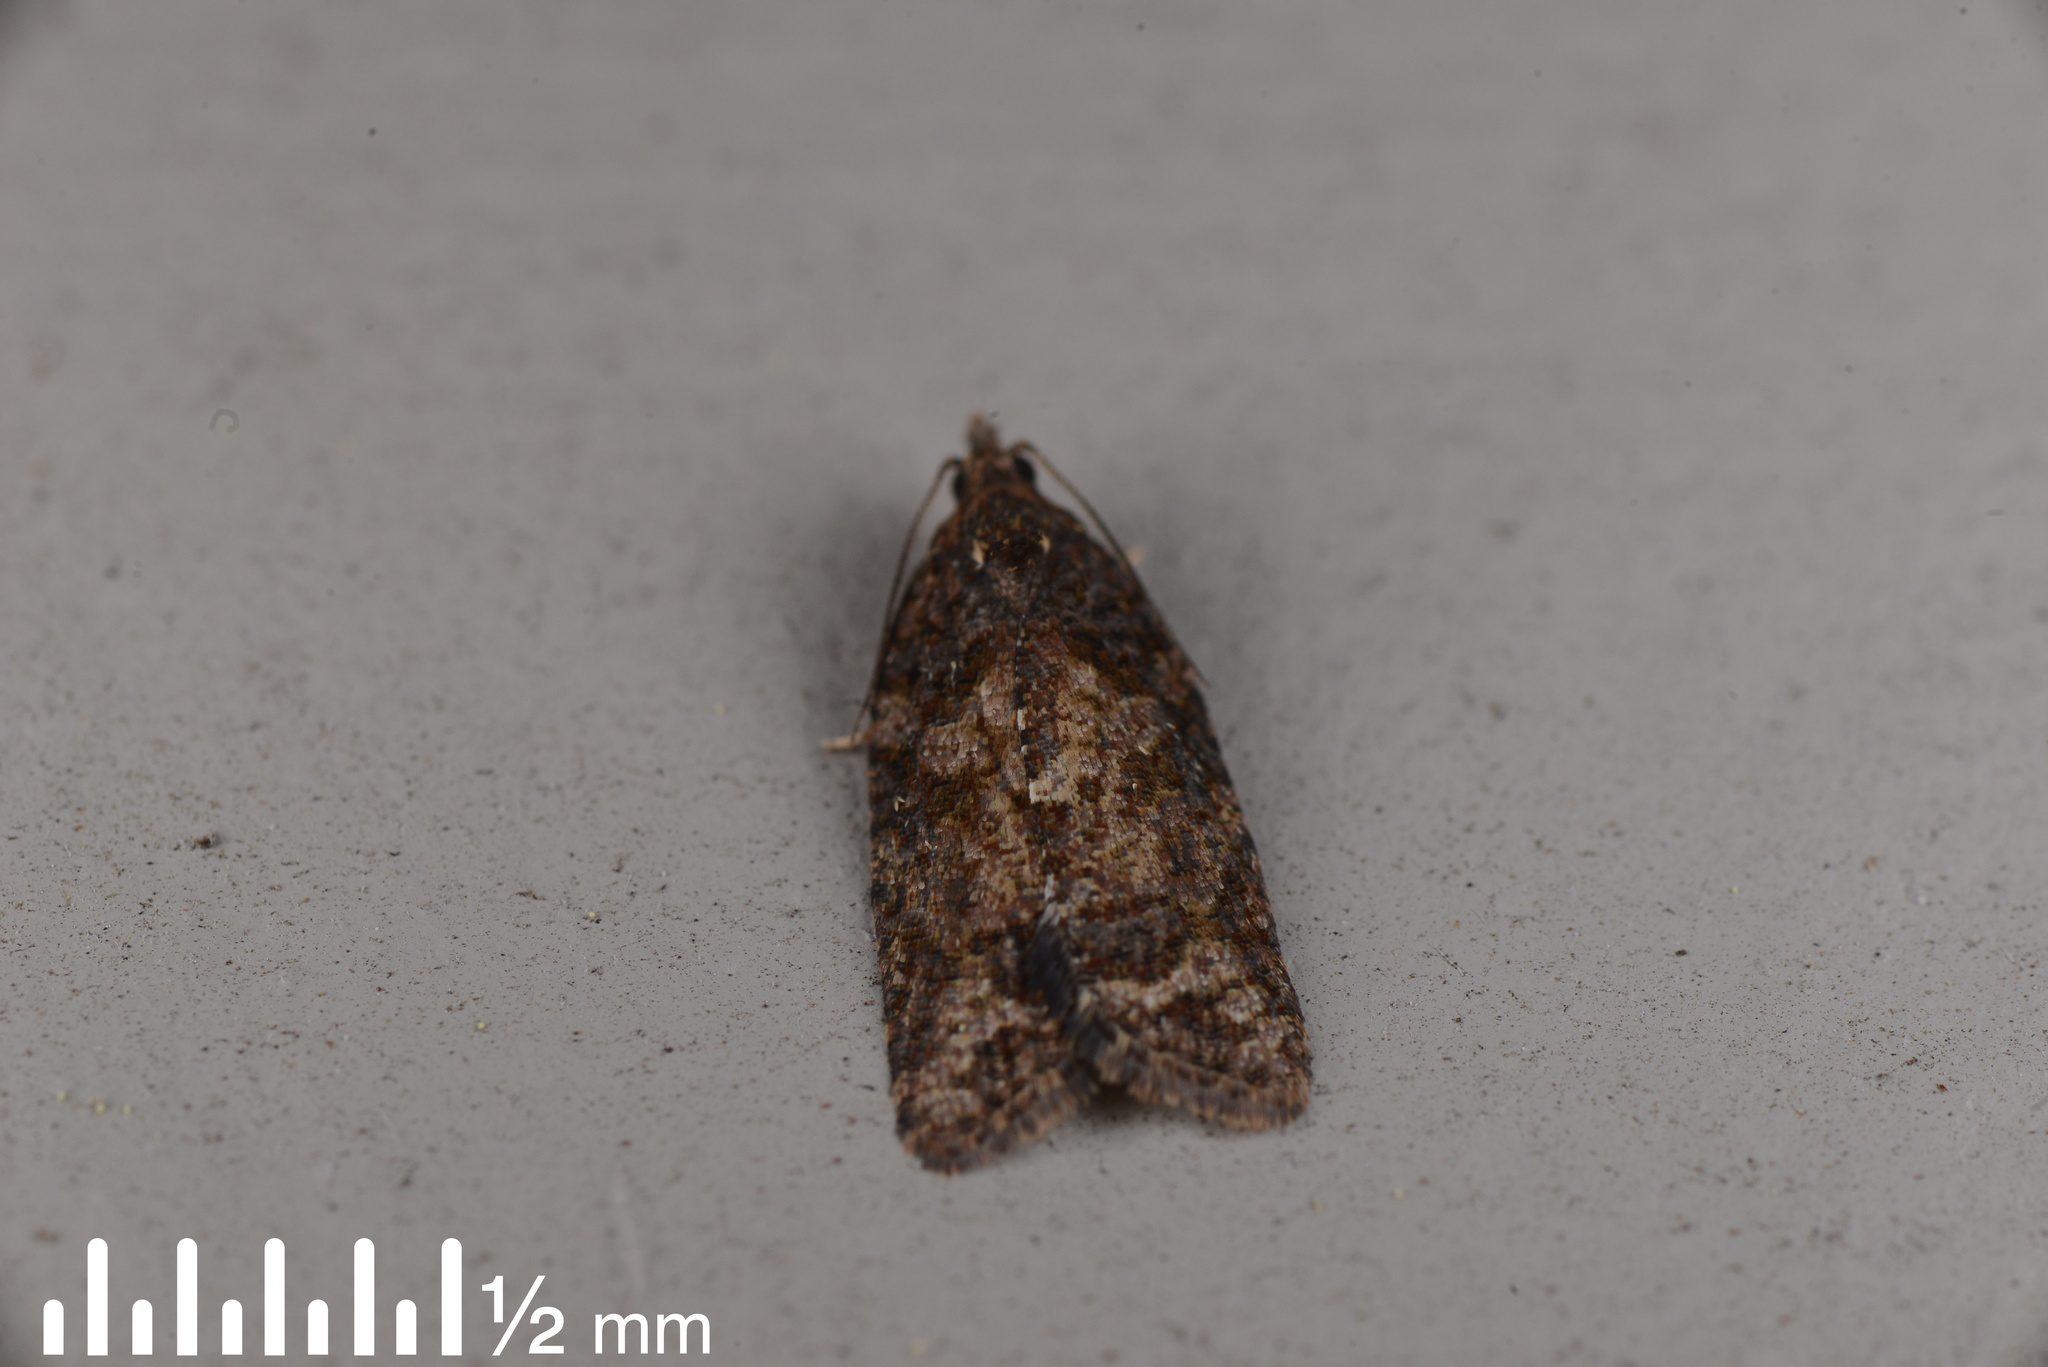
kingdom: Animalia
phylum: Arthropoda
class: Insecta
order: Lepidoptera
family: Tortricidae
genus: Capua
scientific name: Capua intractana
